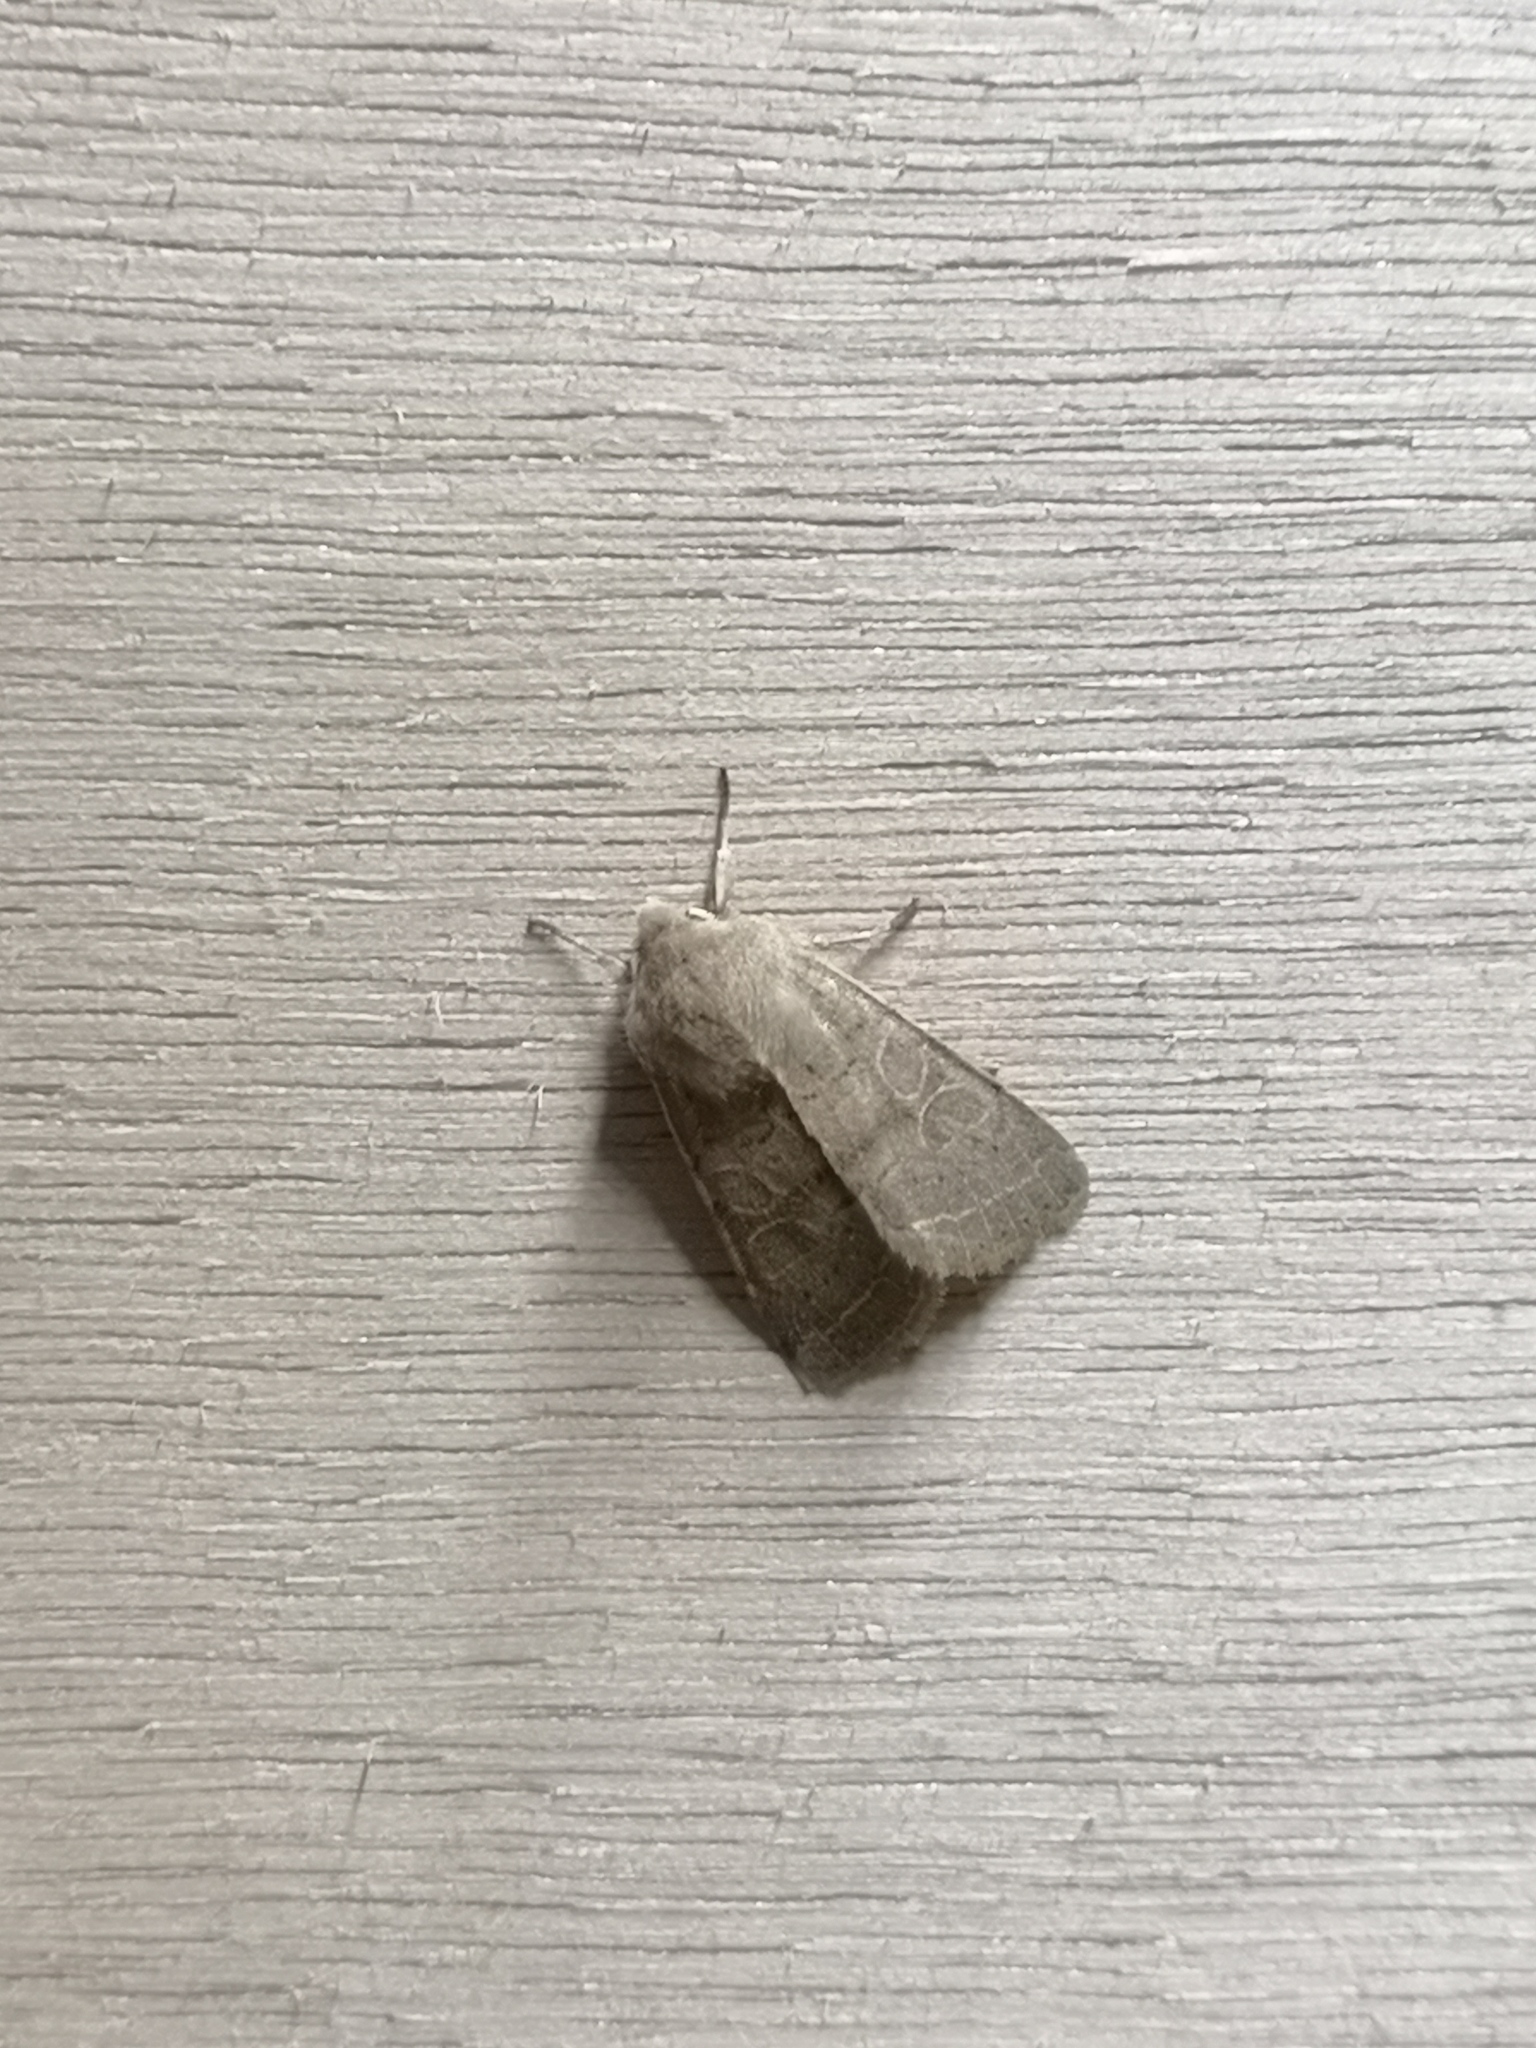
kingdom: Animalia
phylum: Arthropoda
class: Insecta
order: Lepidoptera
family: Noctuidae
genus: Orthosia
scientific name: Orthosia cerasi
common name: Common quaker
